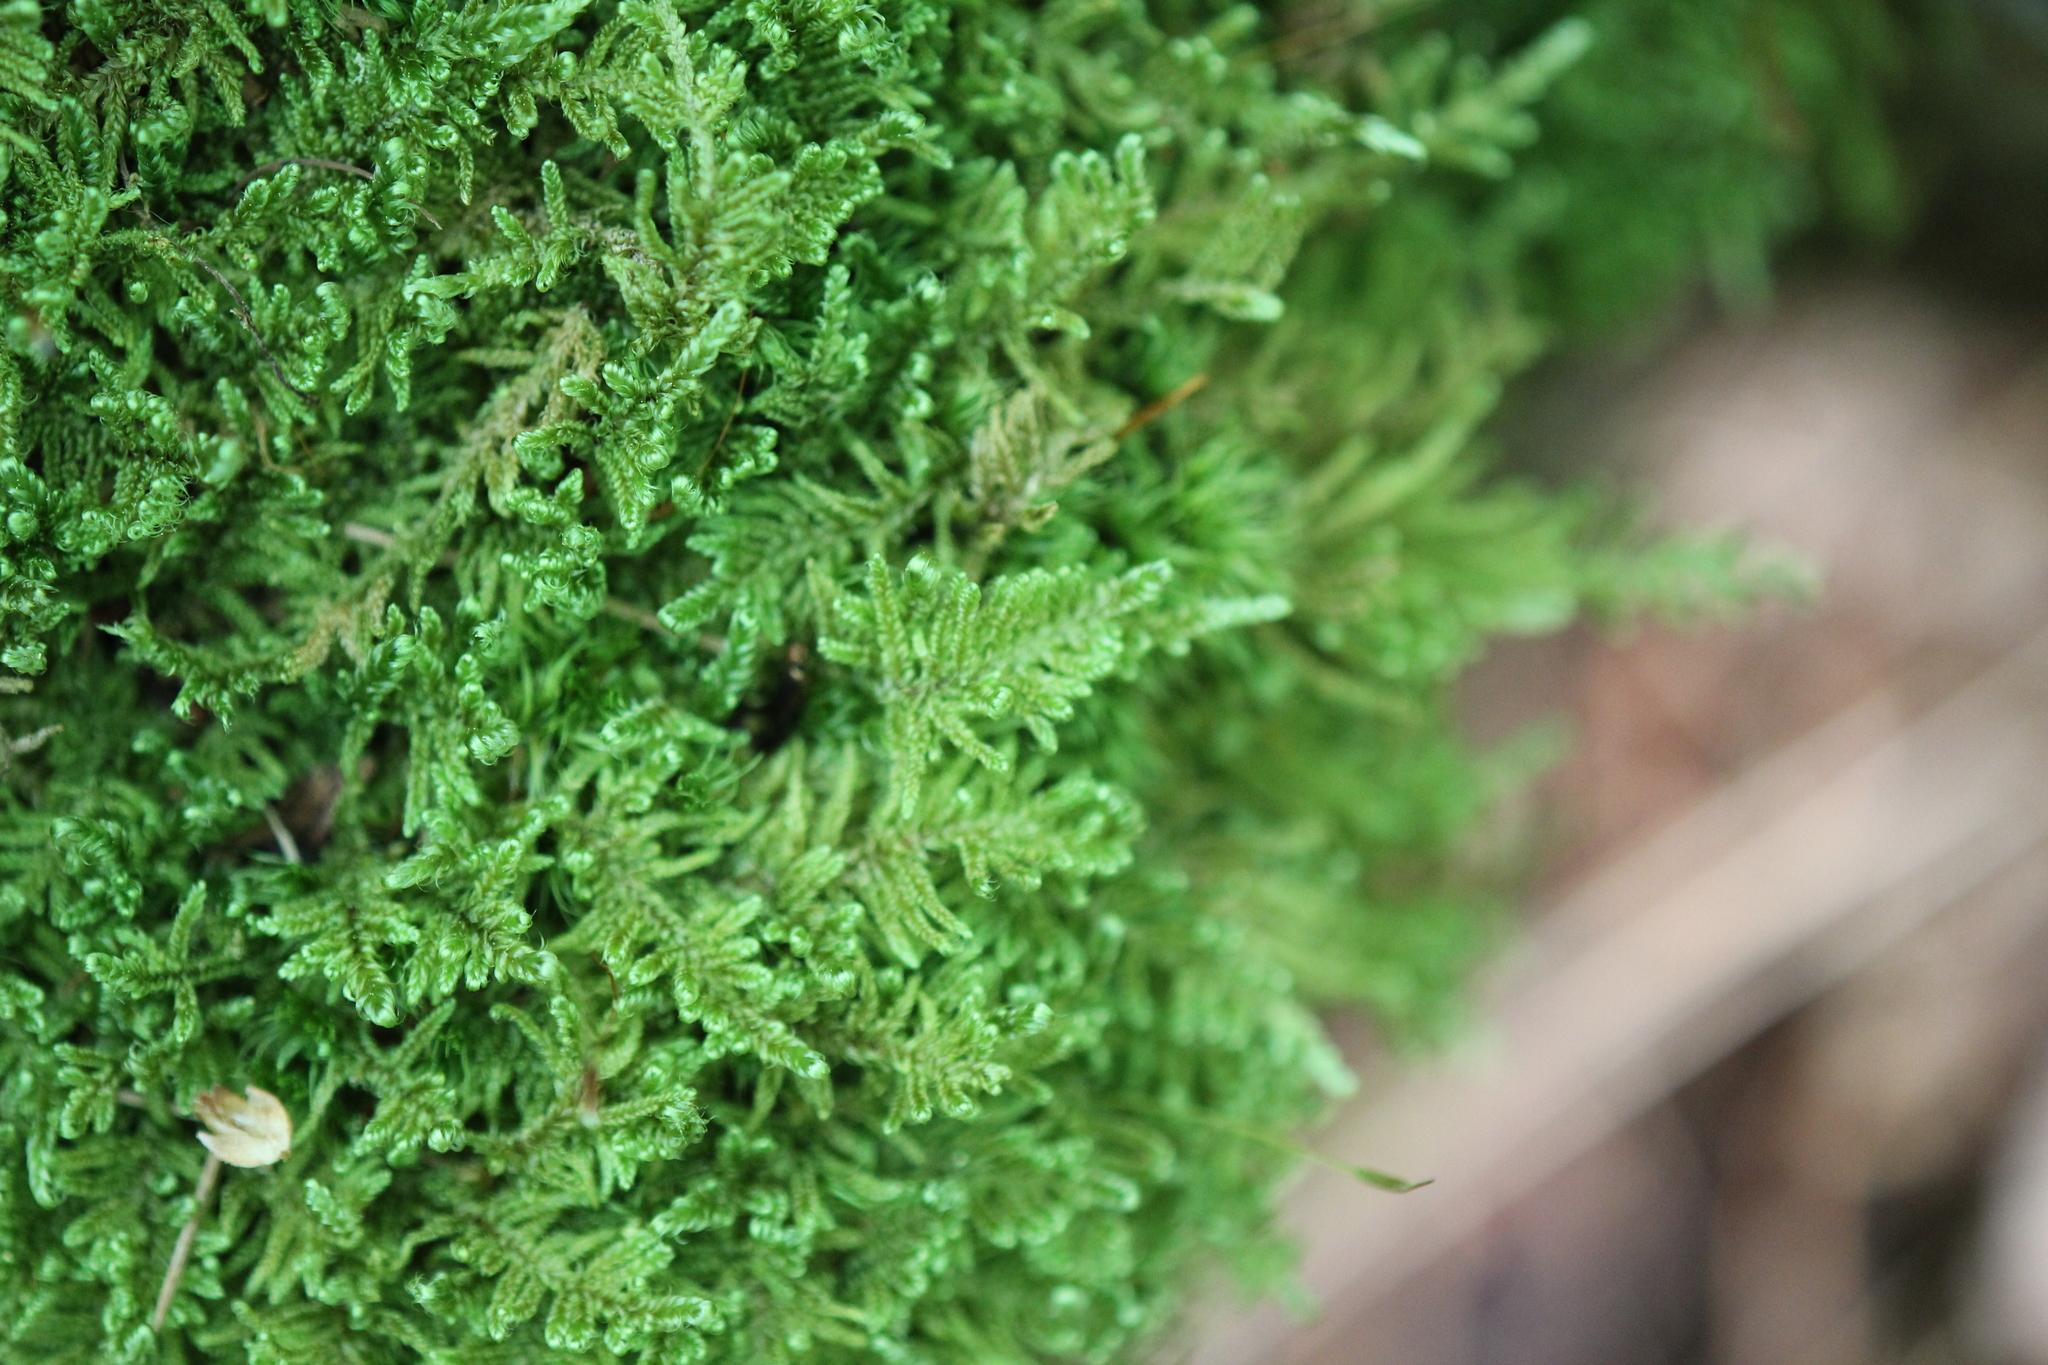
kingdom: Plantae
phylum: Bryophyta
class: Bryopsida
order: Hypnales
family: Callicladiaceae
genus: Callicladium
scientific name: Callicladium imponens
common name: Brocade moss
